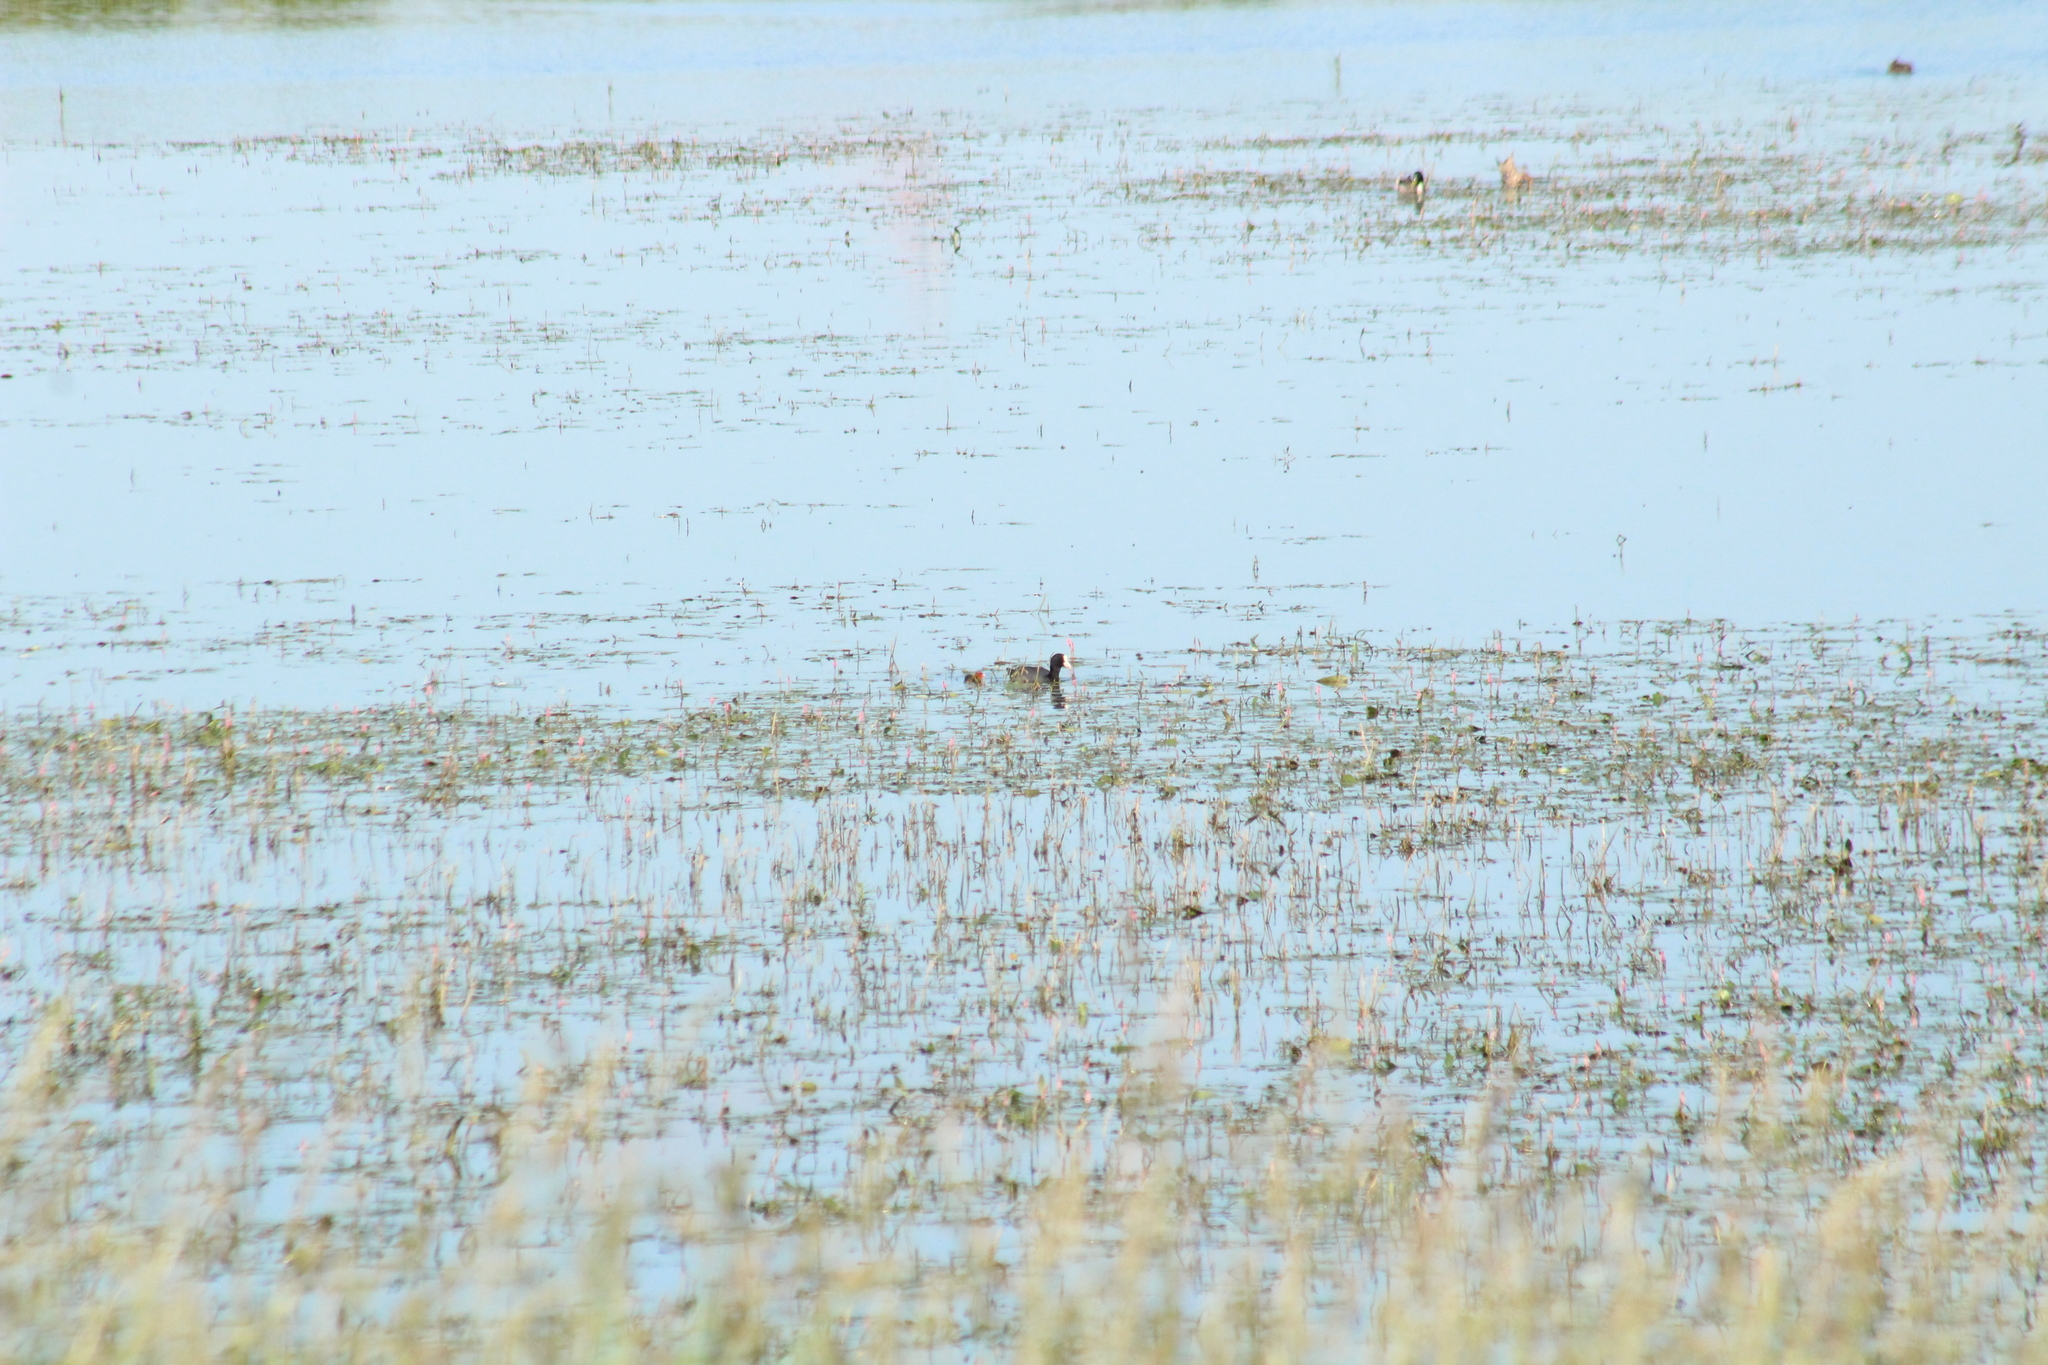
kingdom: Animalia
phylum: Chordata
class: Aves
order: Gruiformes
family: Rallidae
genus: Fulica
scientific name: Fulica atra
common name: Eurasian coot
